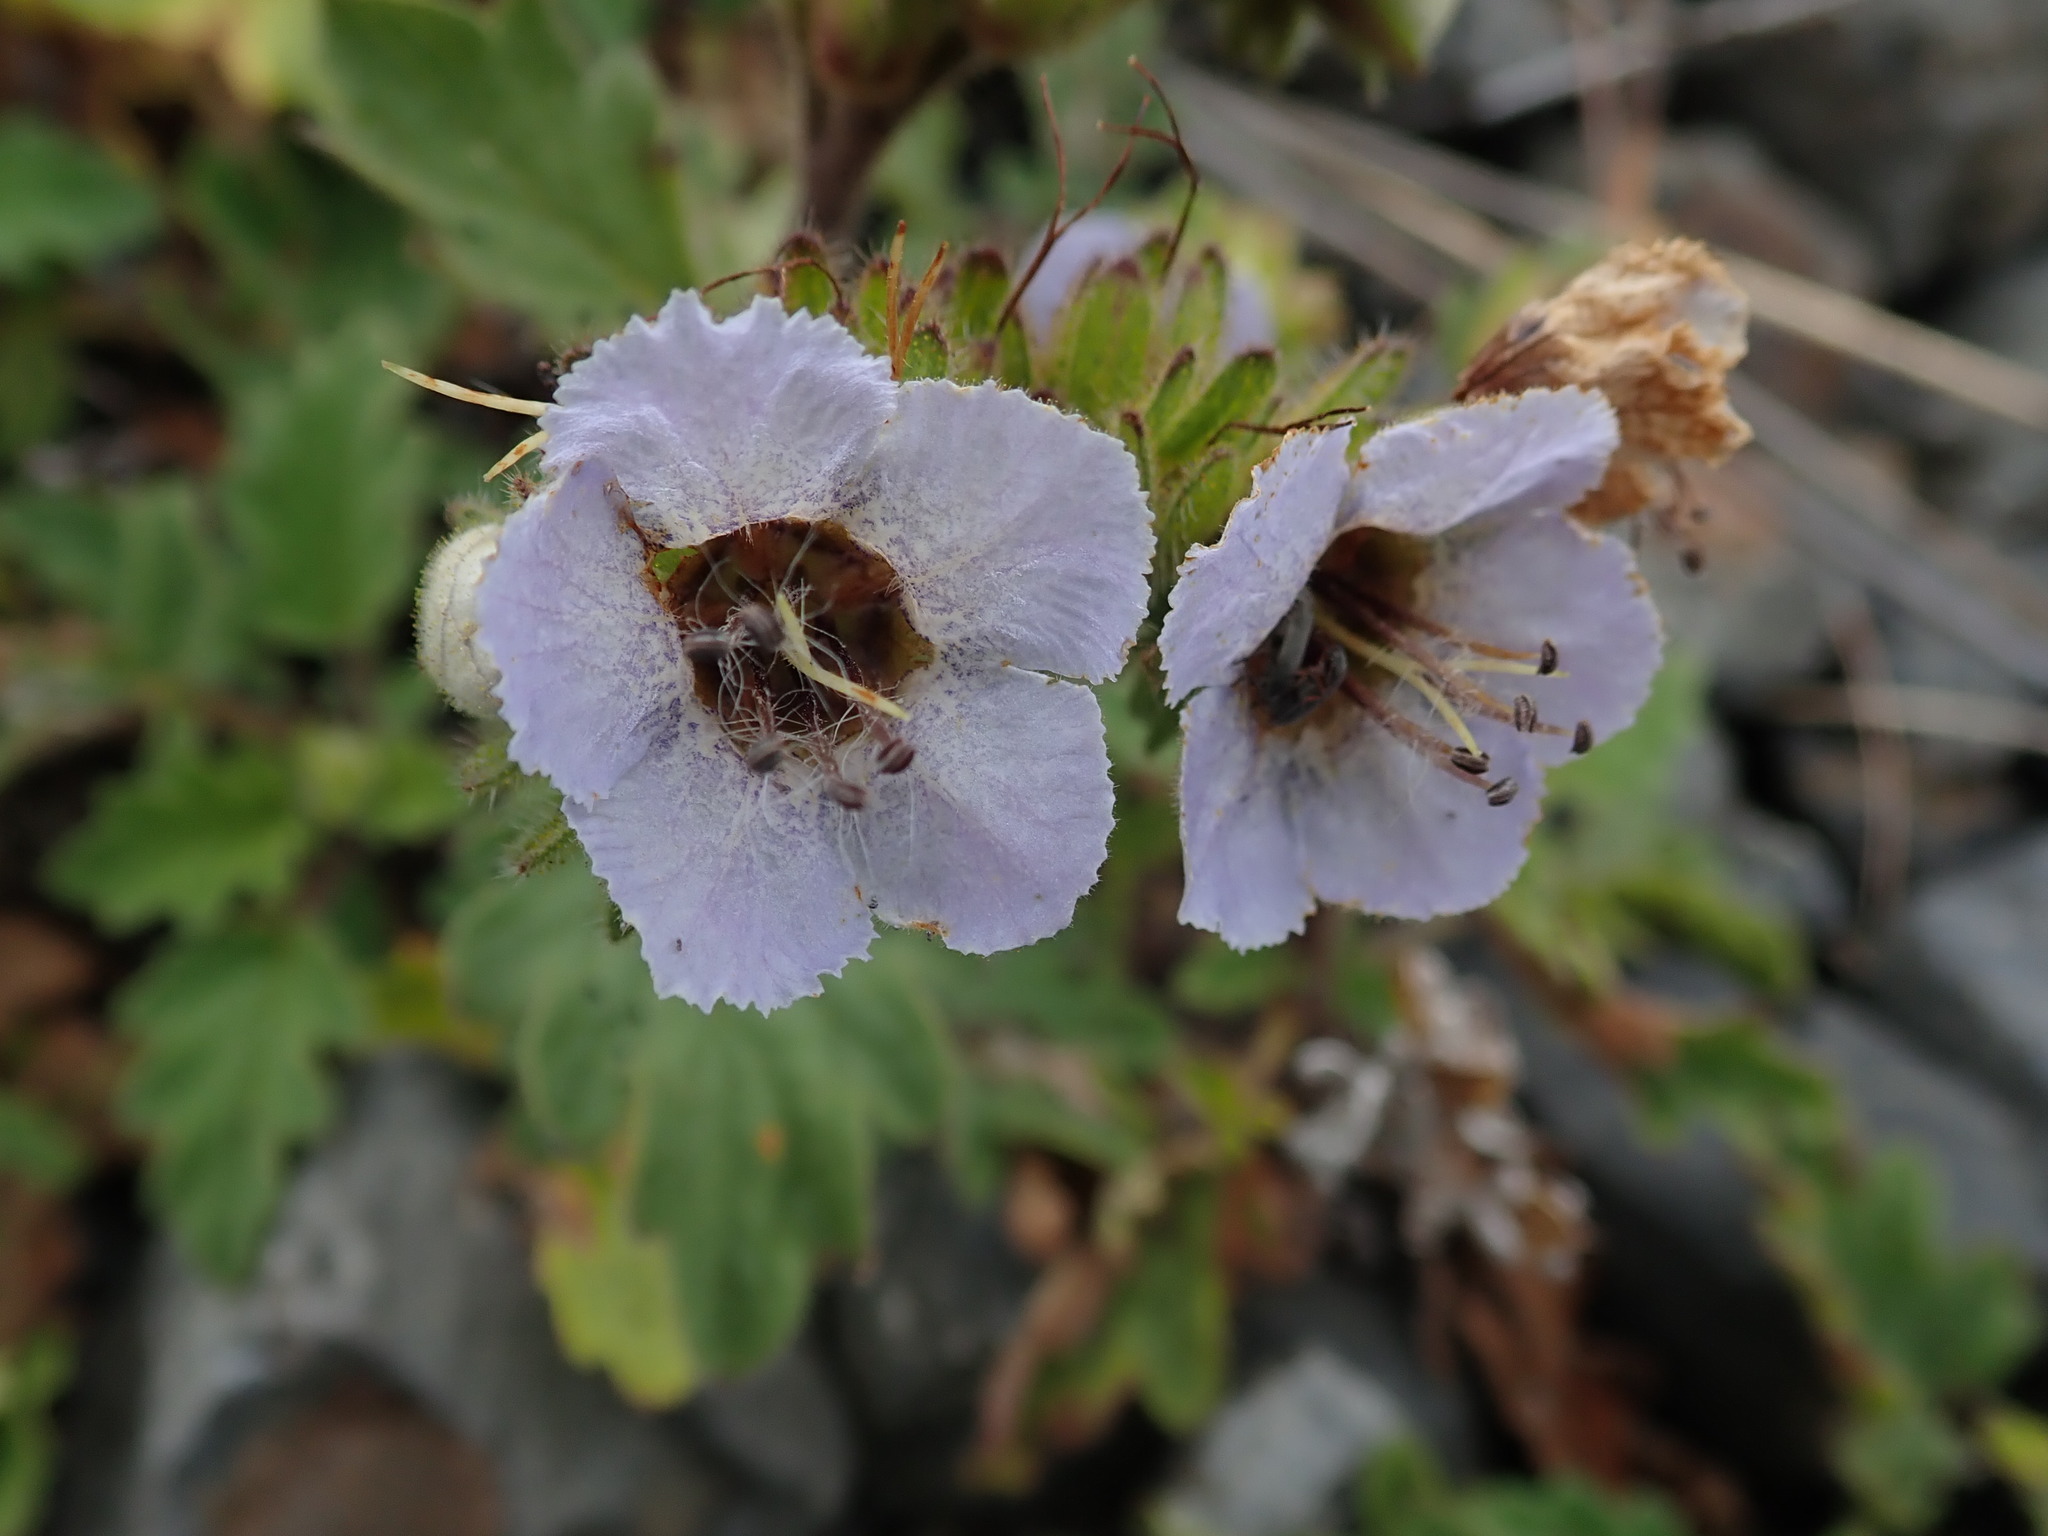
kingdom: Plantae
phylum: Tracheophyta
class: Magnoliopsida
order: Boraginales
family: Hydrophyllaceae
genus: Phacelia
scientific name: Phacelia bolanderi
